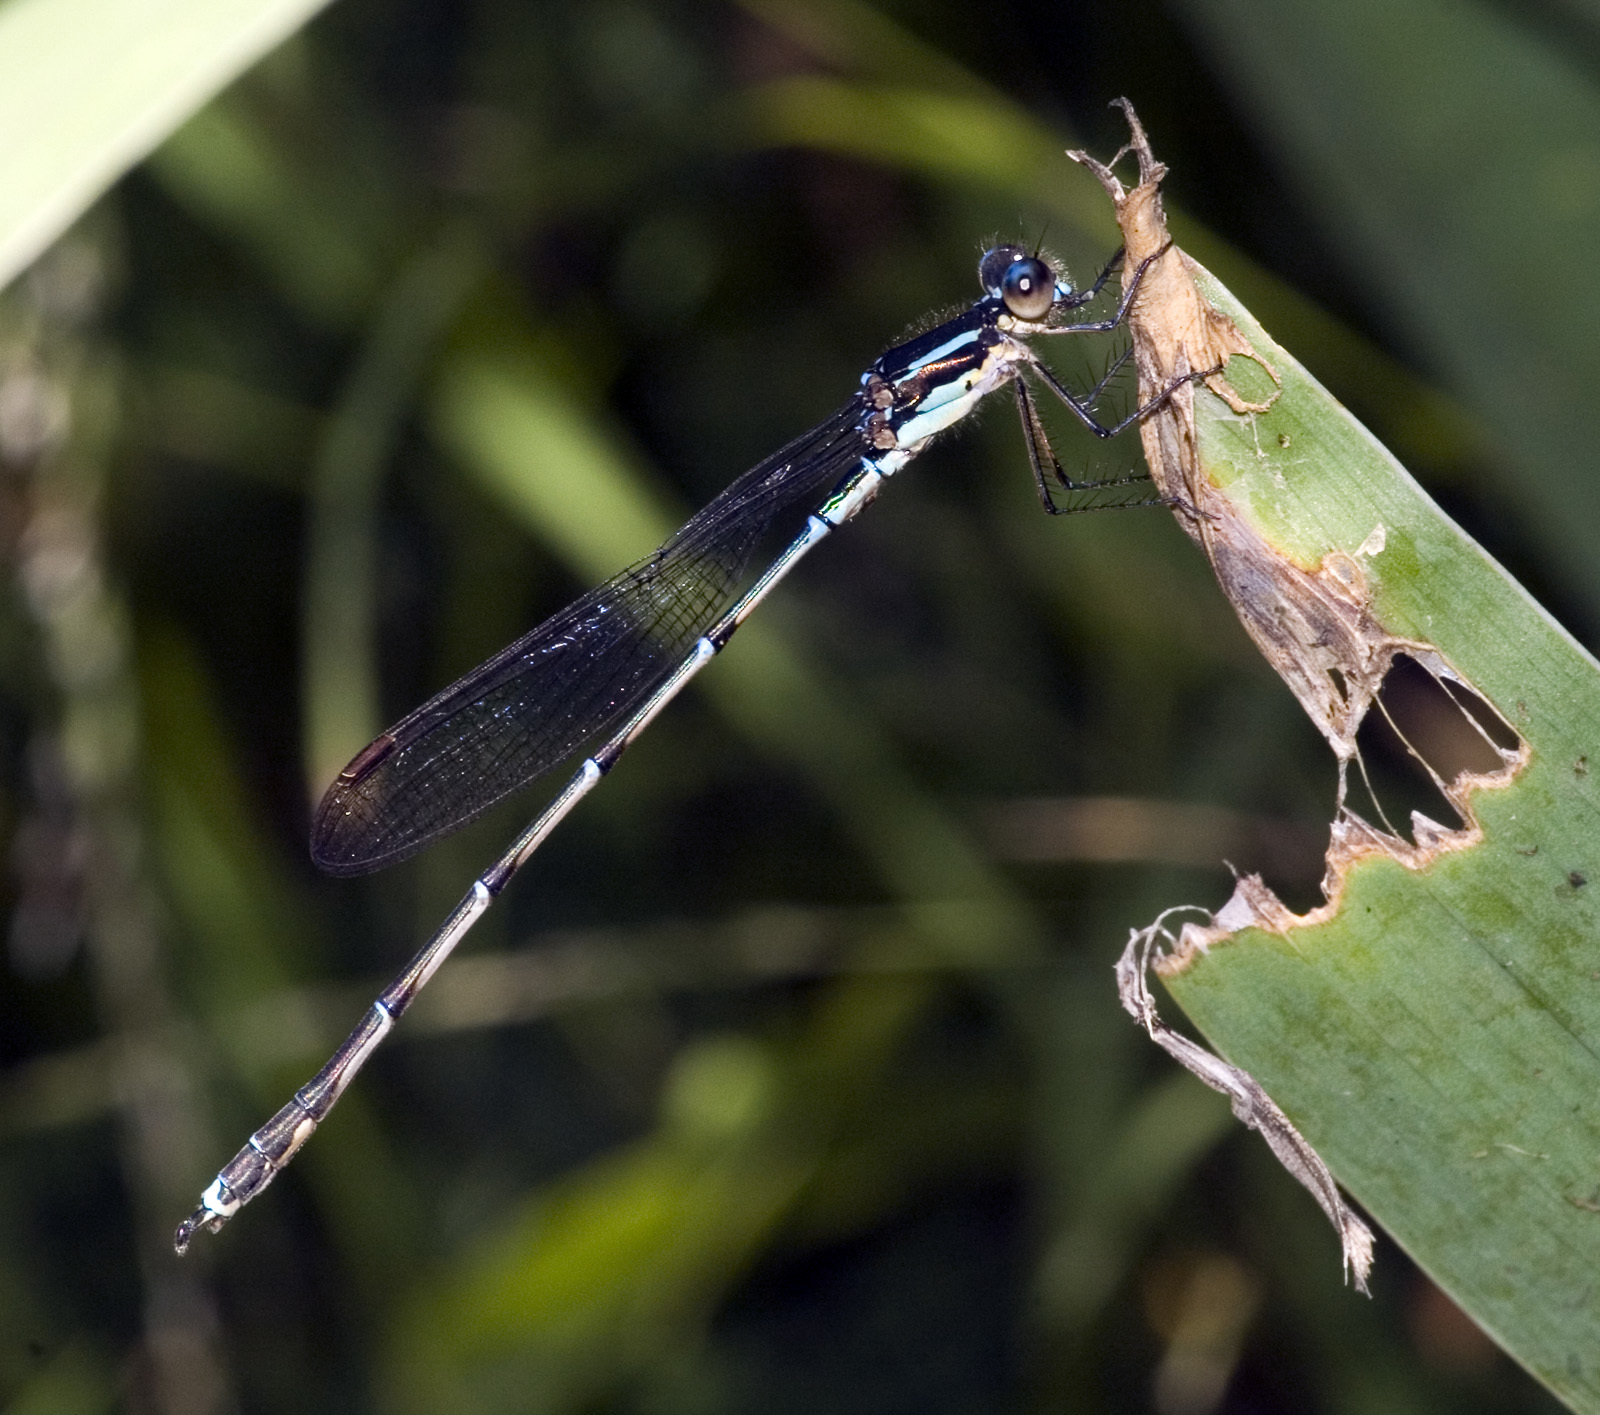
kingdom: Animalia
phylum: Arthropoda
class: Insecta
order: Odonata
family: Lestidae
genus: Austrolestes
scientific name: Austrolestes colensonis
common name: Blue damselfly
